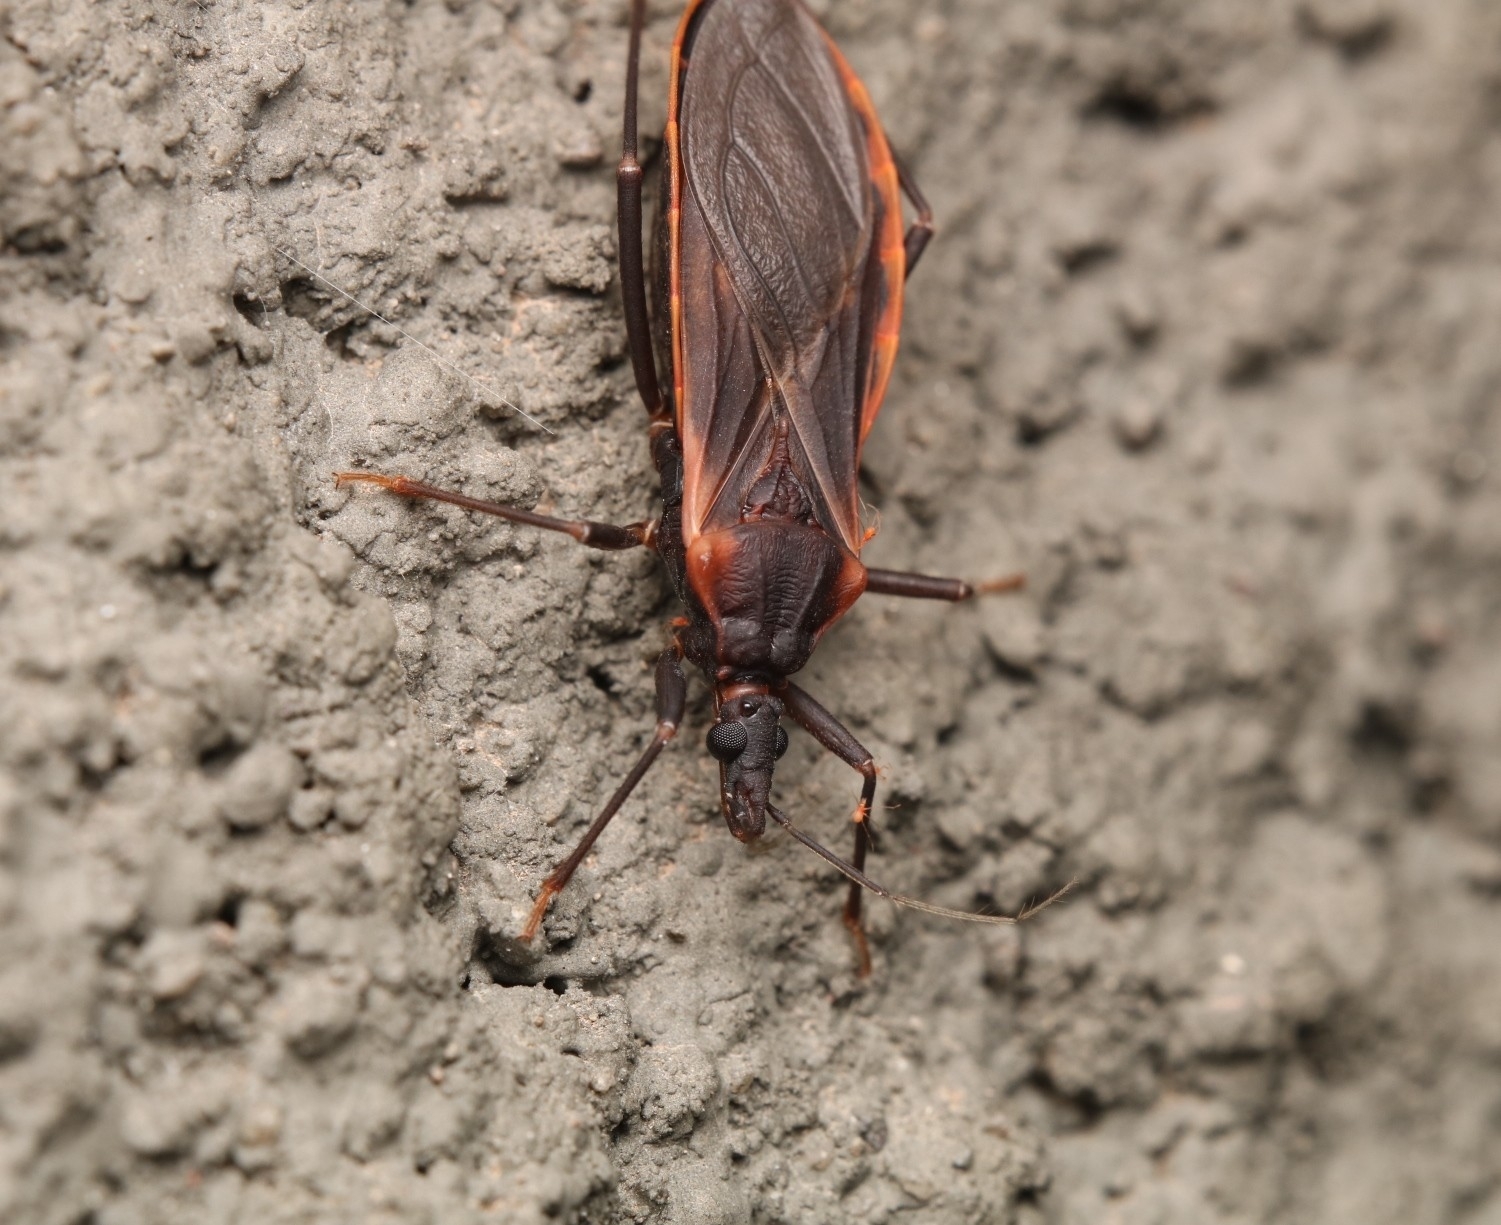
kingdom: Animalia
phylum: Arthropoda
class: Insecta
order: Hemiptera
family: Reduviidae
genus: Triatoma
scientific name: Triatoma rubida
